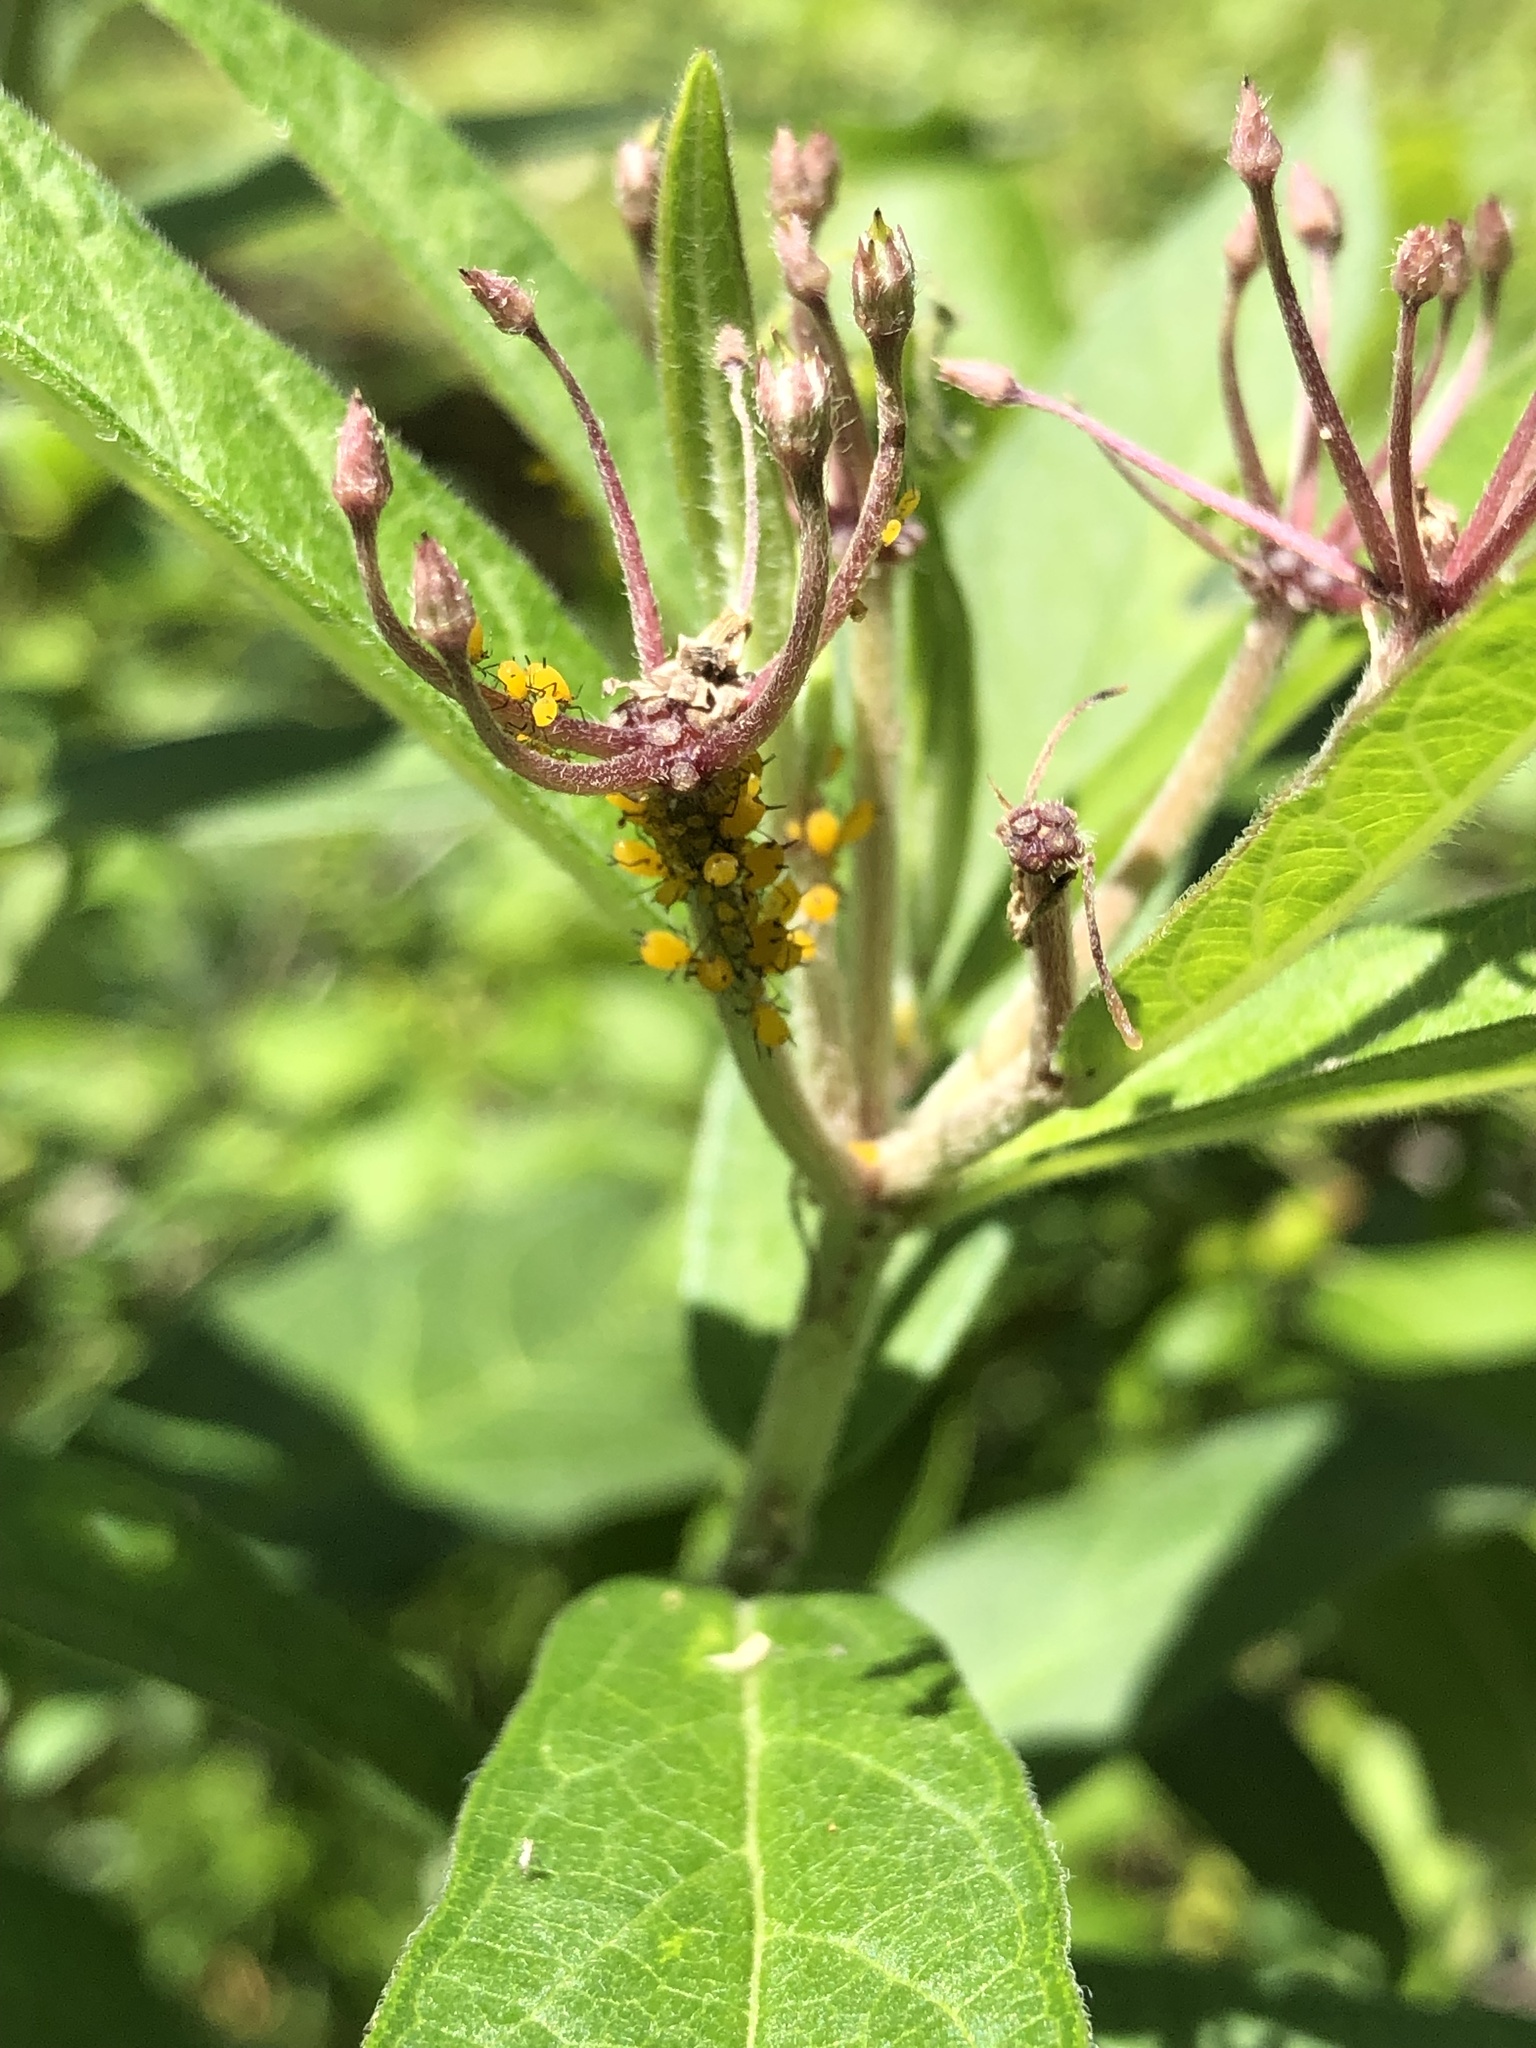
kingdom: Animalia
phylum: Arthropoda
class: Insecta
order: Hemiptera
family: Aphididae
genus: Aphis
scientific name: Aphis nerii
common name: Oleander aphid
